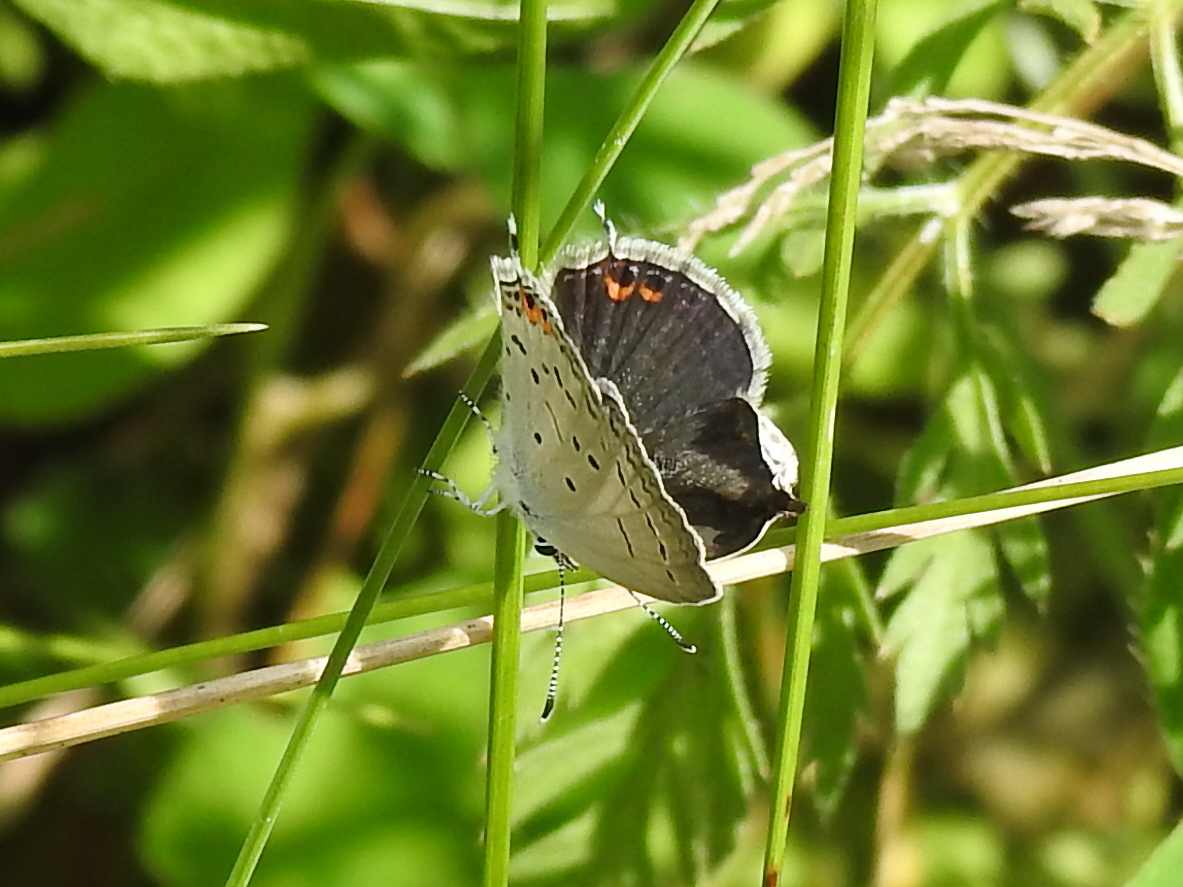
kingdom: Animalia
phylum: Arthropoda
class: Insecta
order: Lepidoptera
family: Lycaenidae
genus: Elkalyce
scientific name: Elkalyce comyntas
